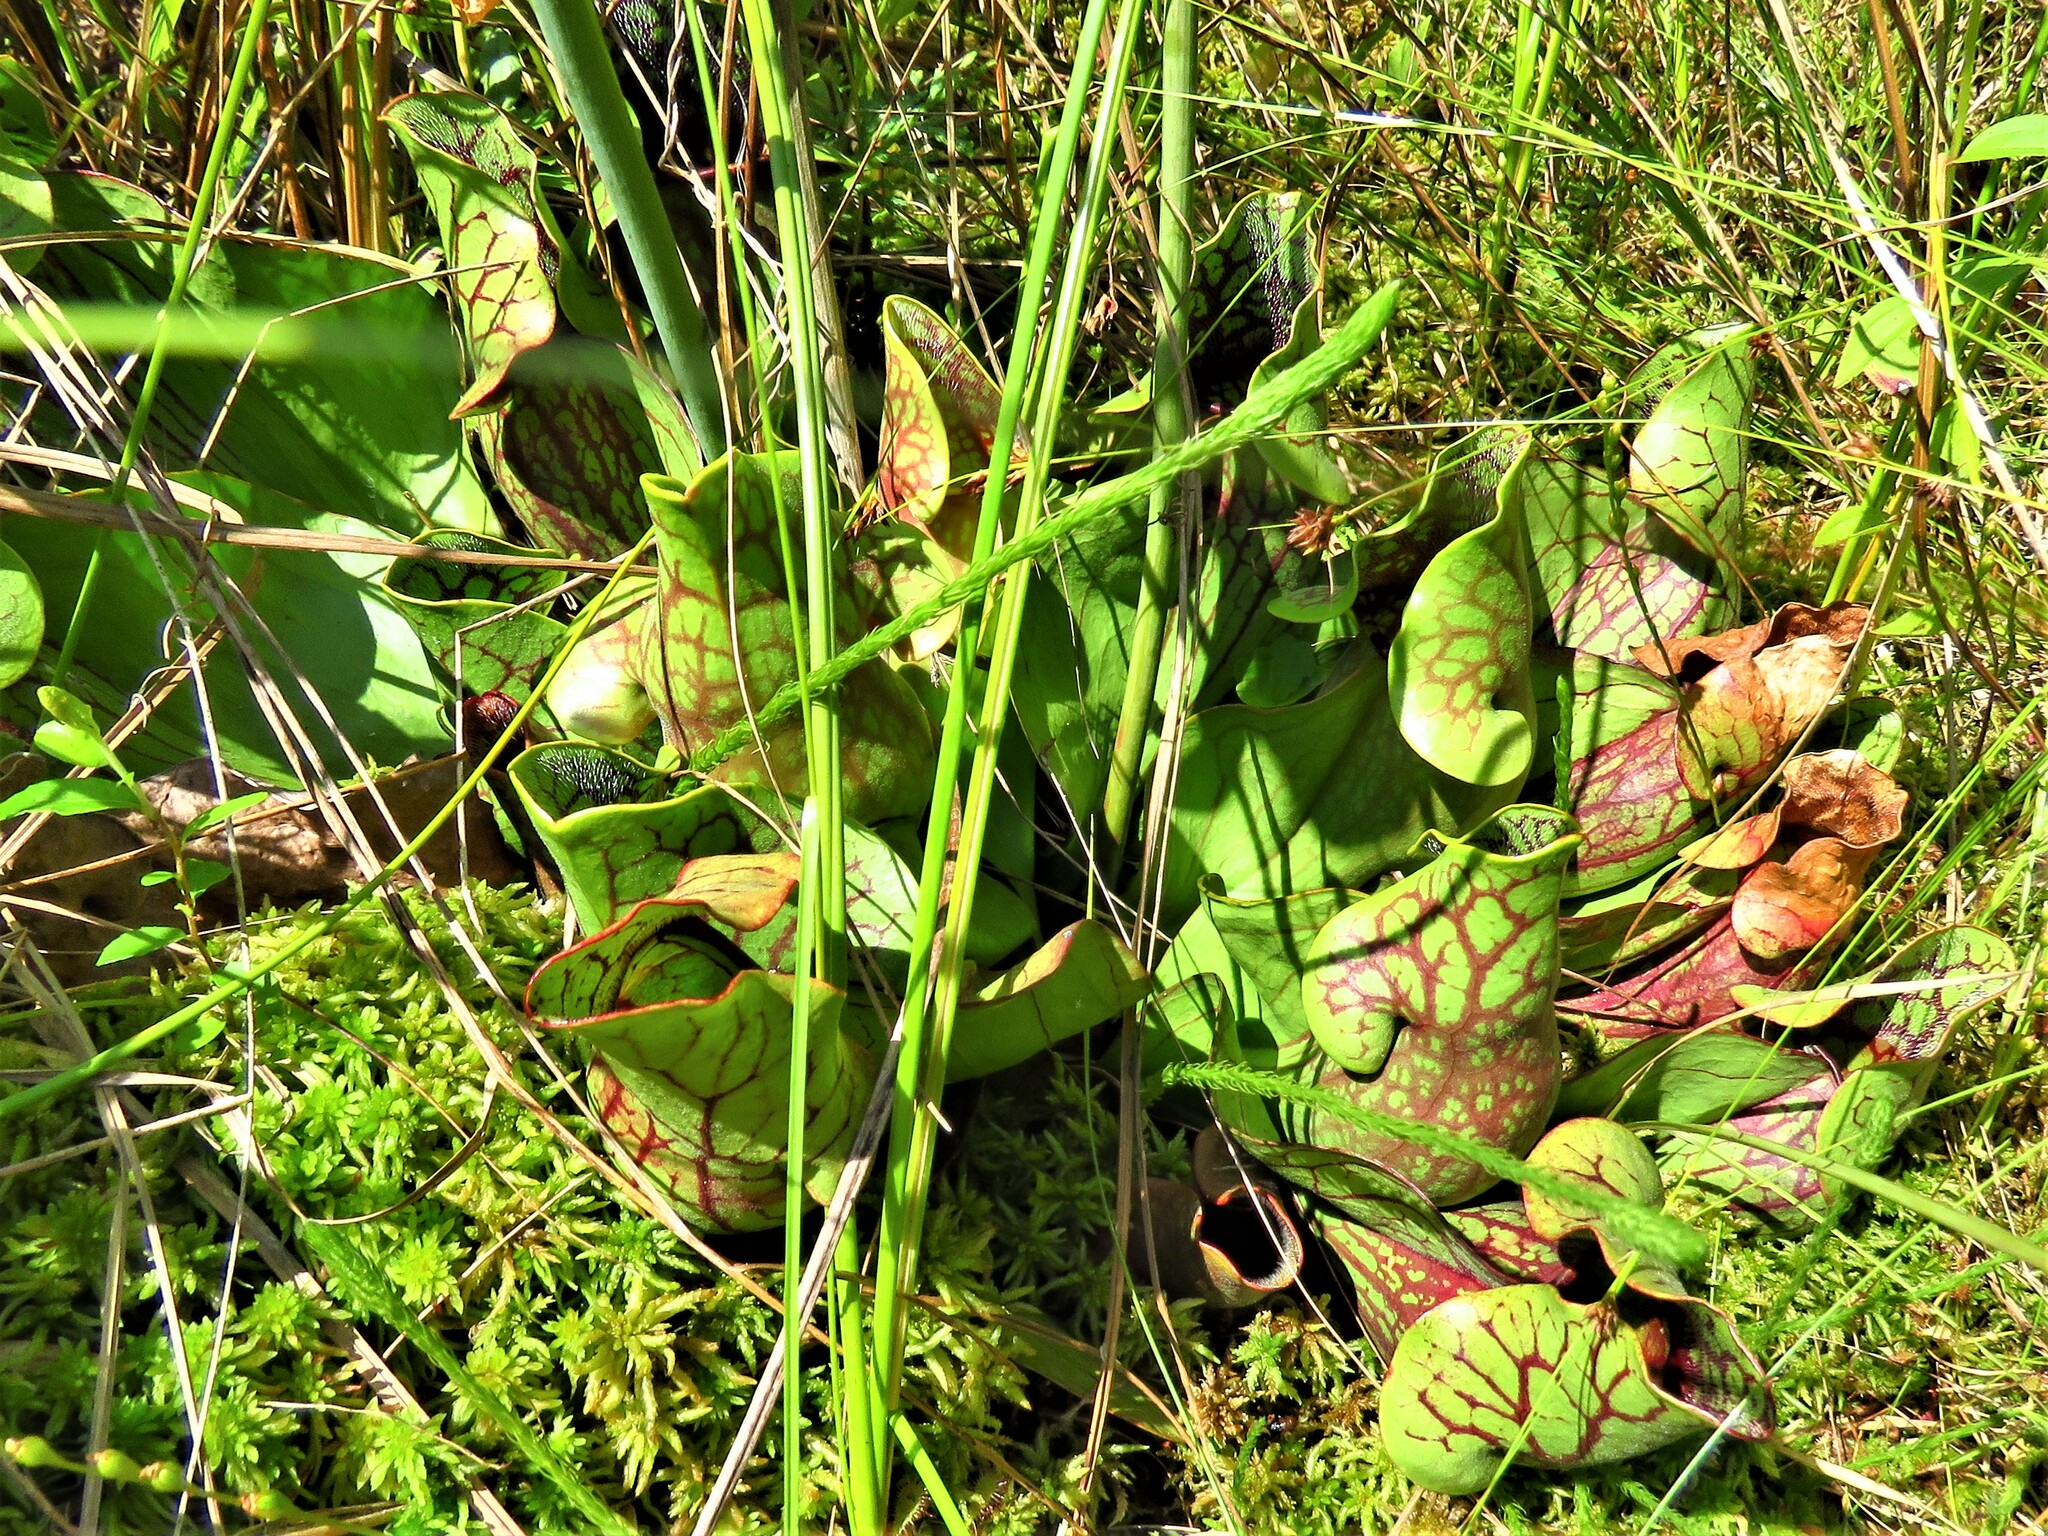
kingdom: Plantae
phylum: Tracheophyta
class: Magnoliopsida
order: Ericales
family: Sarraceniaceae
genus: Sarracenia
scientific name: Sarracenia purpurea
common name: Pitcherplant
